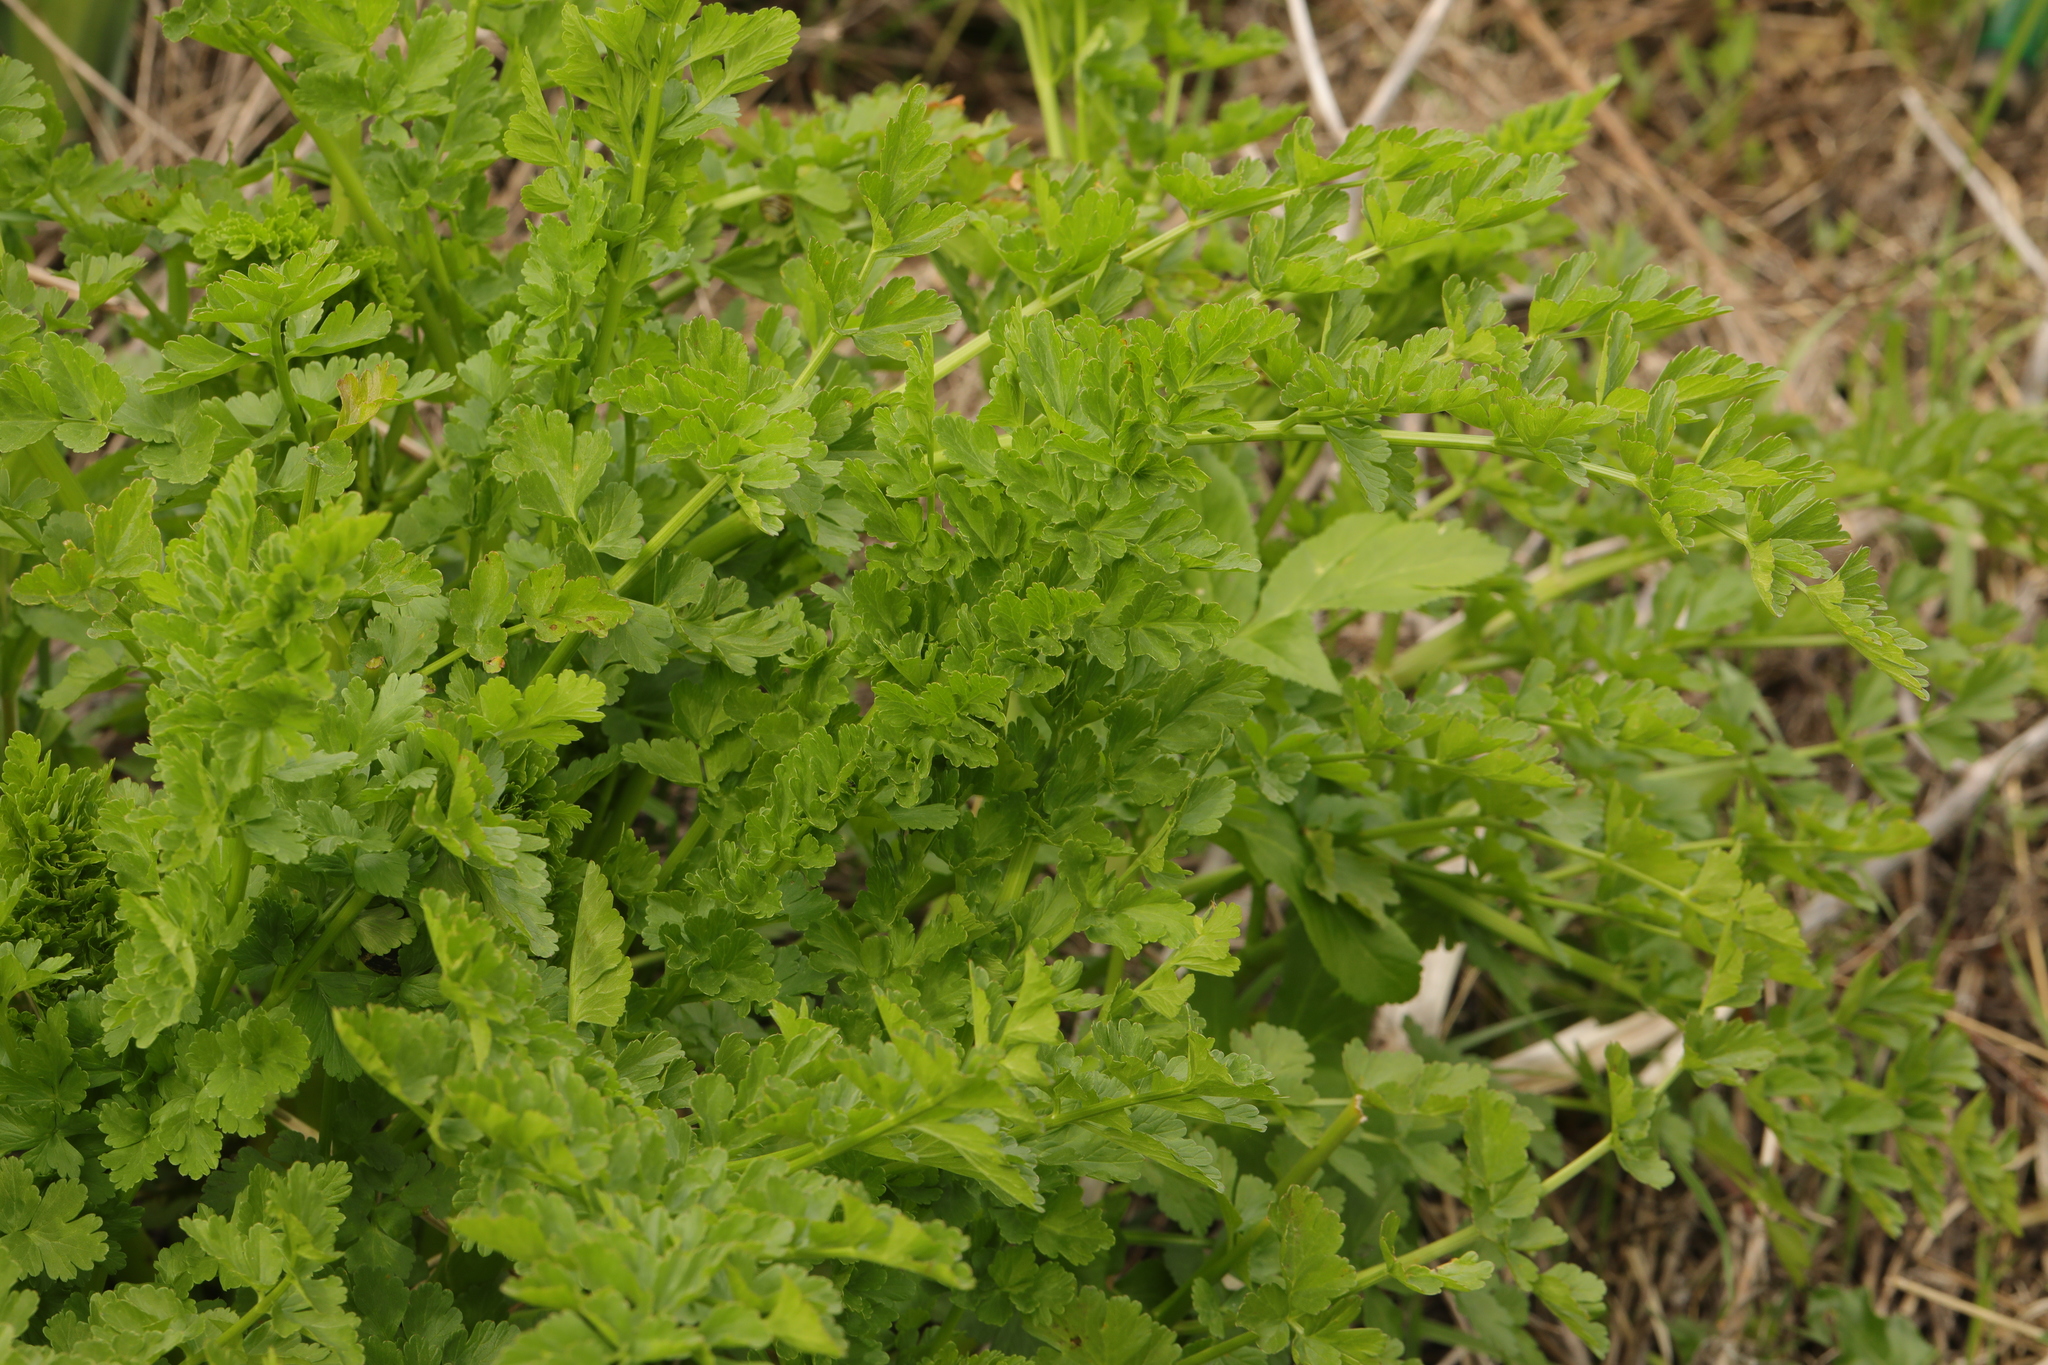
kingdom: Plantae
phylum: Tracheophyta
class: Magnoliopsida
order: Apiales
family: Apiaceae
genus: Oenanthe
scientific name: Oenanthe crocata
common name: Hemlock water-dropwort
